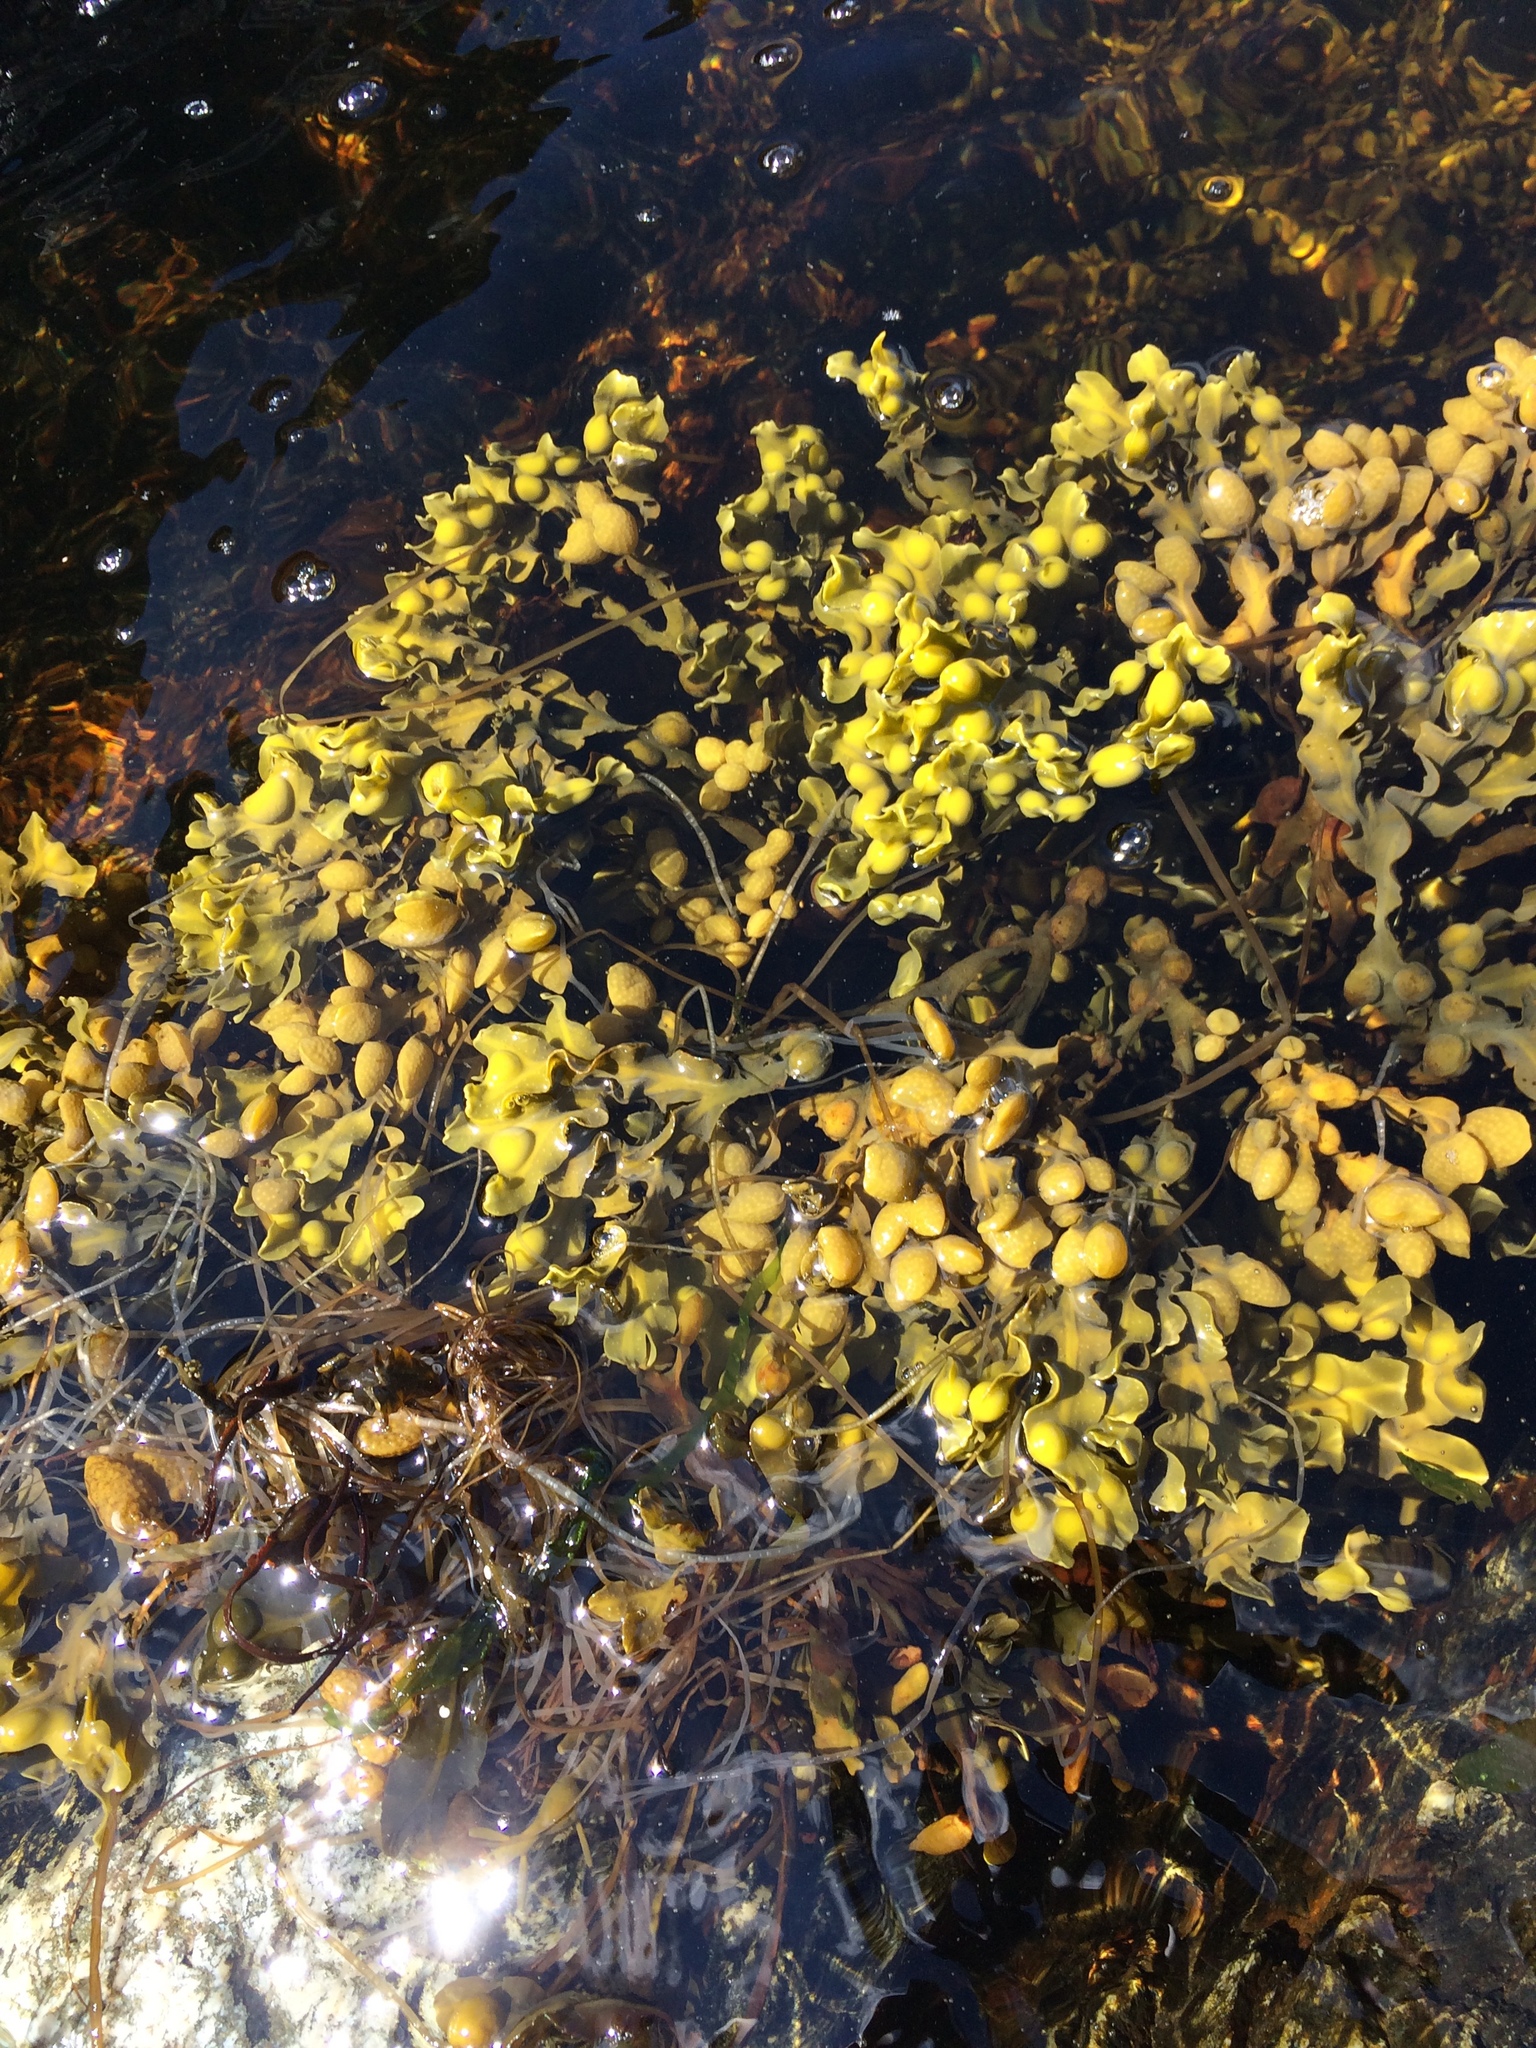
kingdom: Chromista
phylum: Ochrophyta
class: Phaeophyceae
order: Fucales
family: Fucaceae
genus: Fucus
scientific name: Fucus vesiculosus
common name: Bladder wrack
